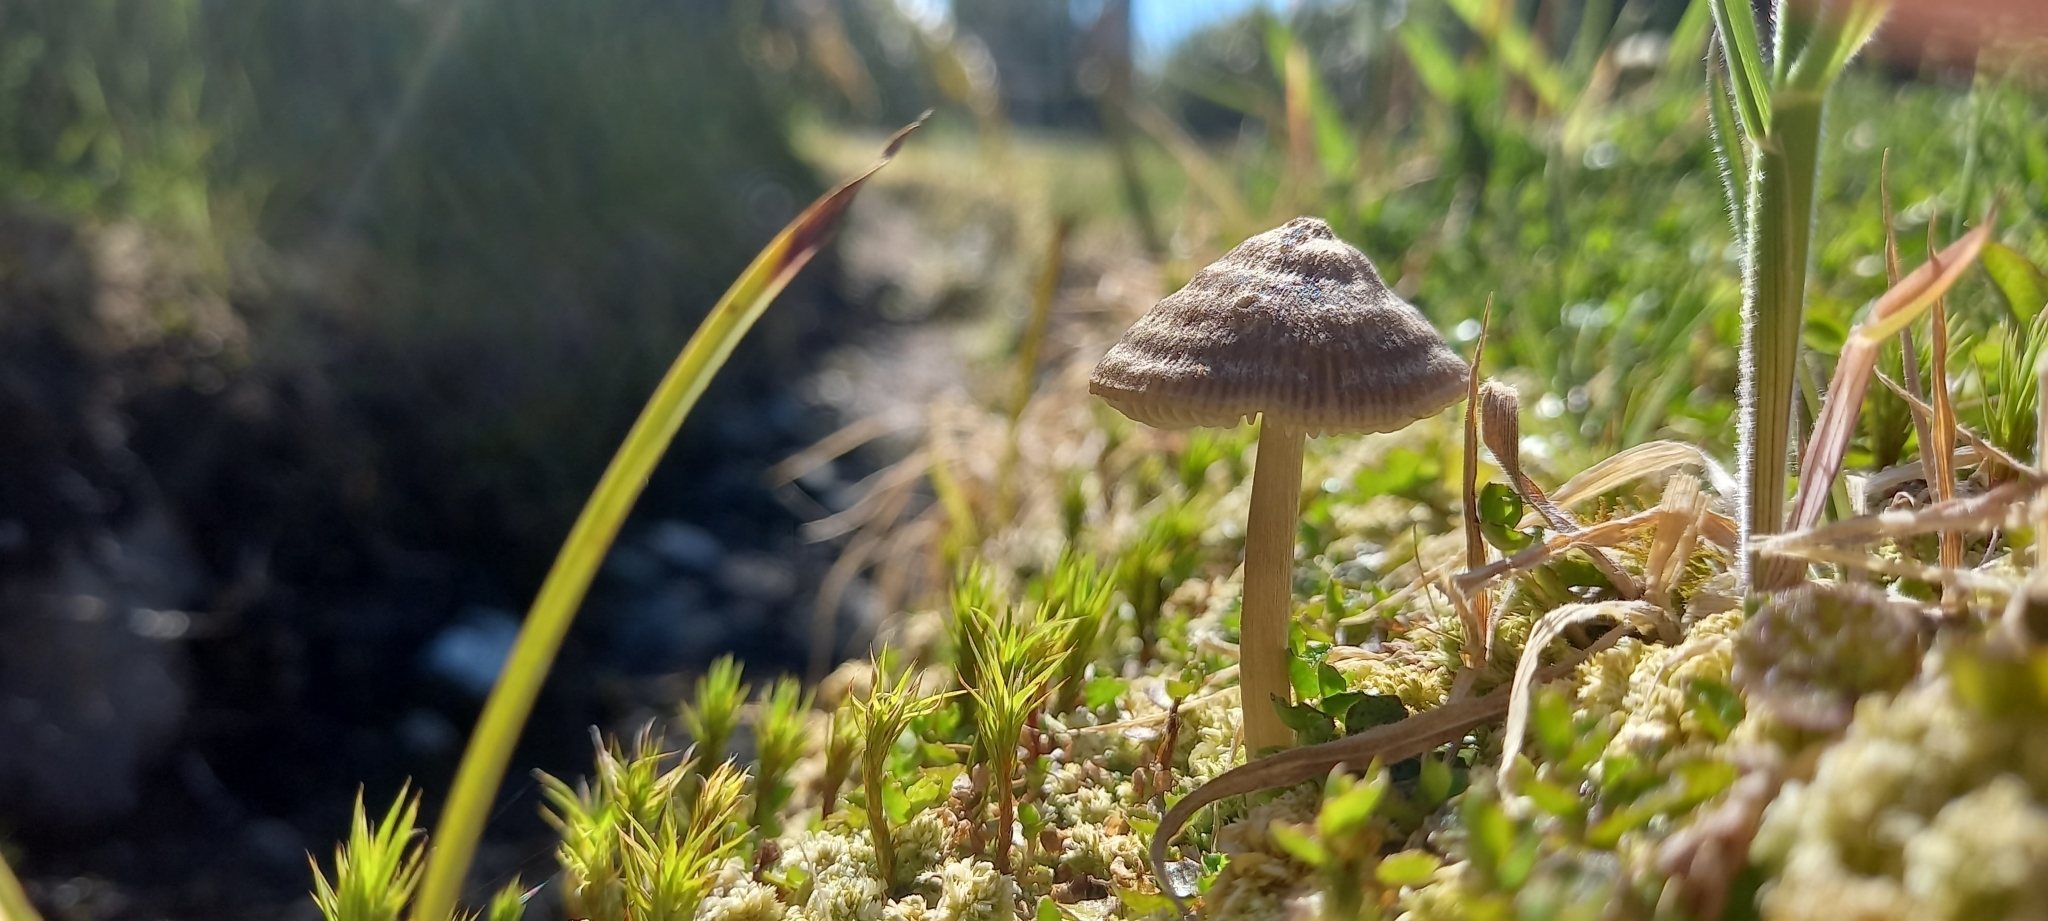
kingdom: Fungi
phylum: Basidiomycota
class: Agaricomycetes
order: Agaricales
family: Entolomataceae
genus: Entoloma
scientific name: Entoloma perzonatum
